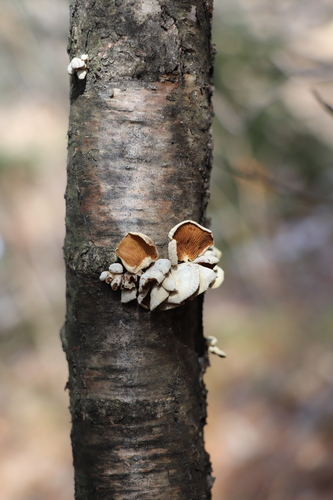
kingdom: Fungi
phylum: Basidiomycota
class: Agaricomycetes
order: Agaricales
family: Mycenaceae
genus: Panellus
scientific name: Panellus stipticus
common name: Bitter oysterling
